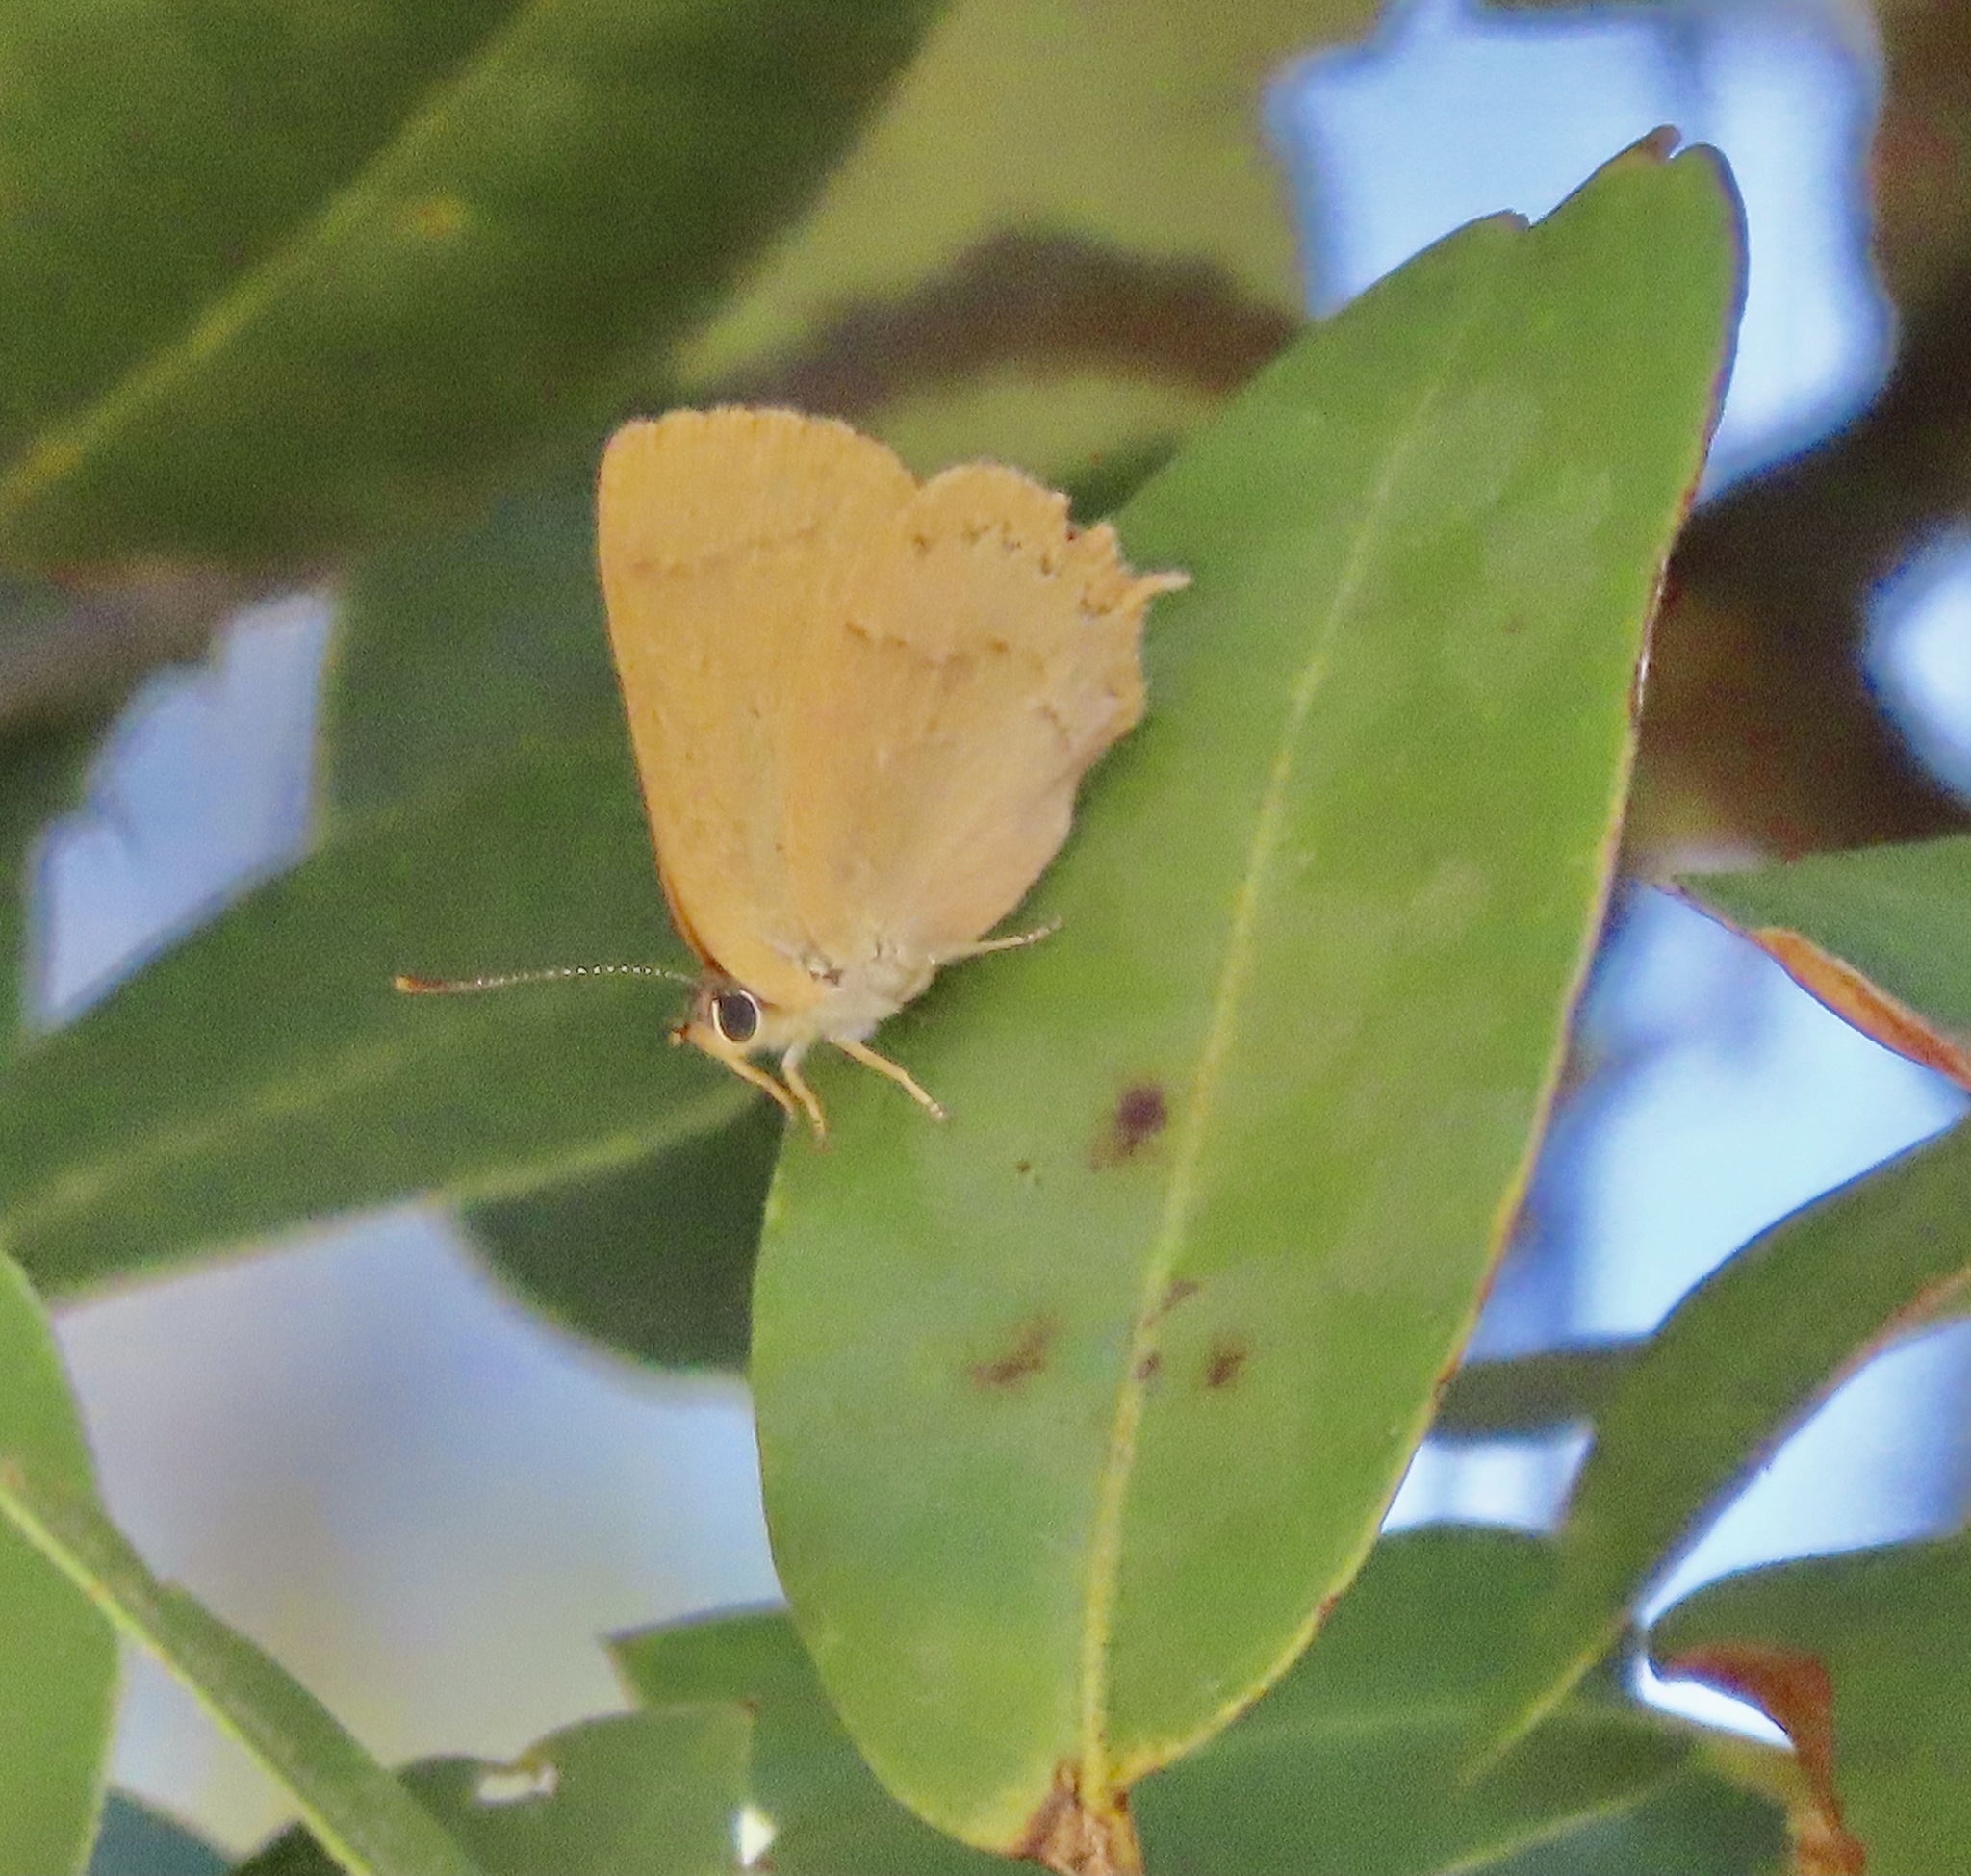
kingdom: Animalia
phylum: Arthropoda
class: Insecta
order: Lepidoptera
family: Lycaenidae
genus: Habrodais
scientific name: Habrodais grunus
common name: Golden hairstreak
